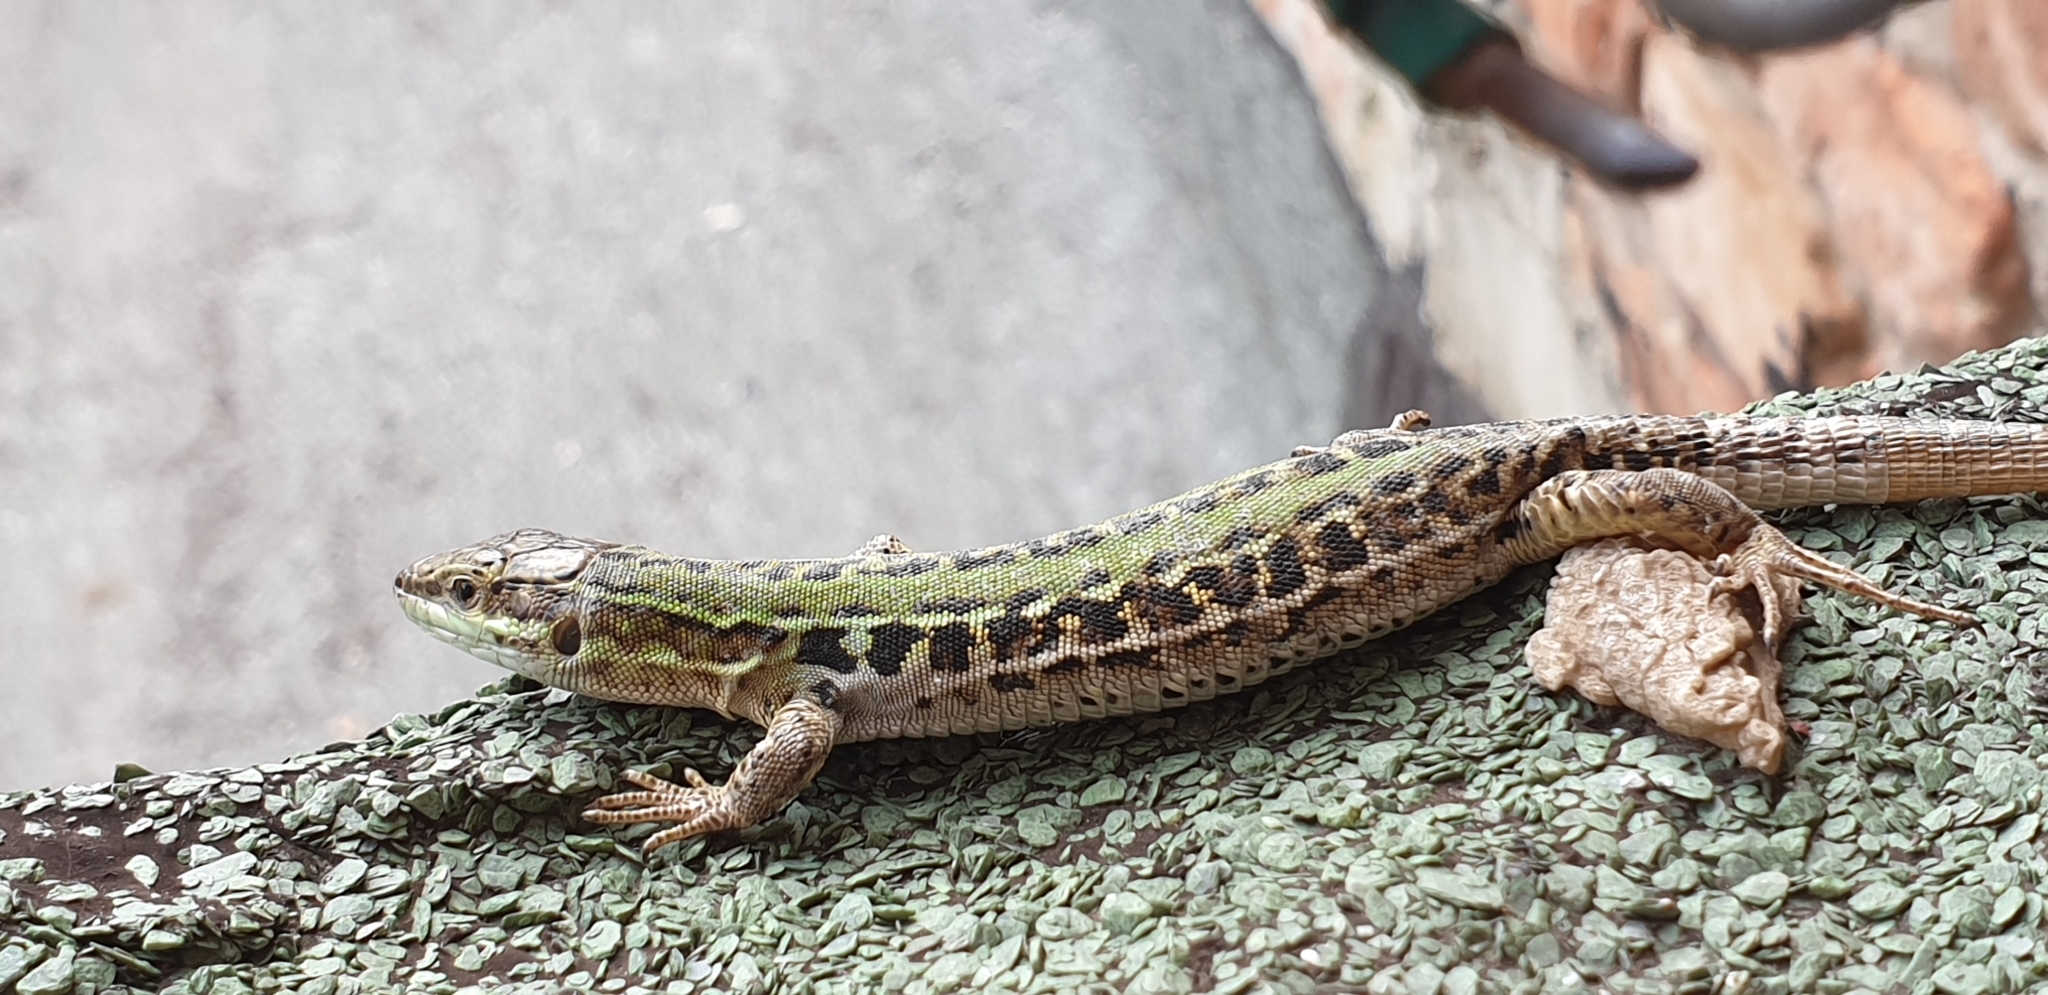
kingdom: Animalia
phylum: Chordata
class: Squamata
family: Lacertidae
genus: Podarcis
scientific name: Podarcis siculus
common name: Italian wall lizard
